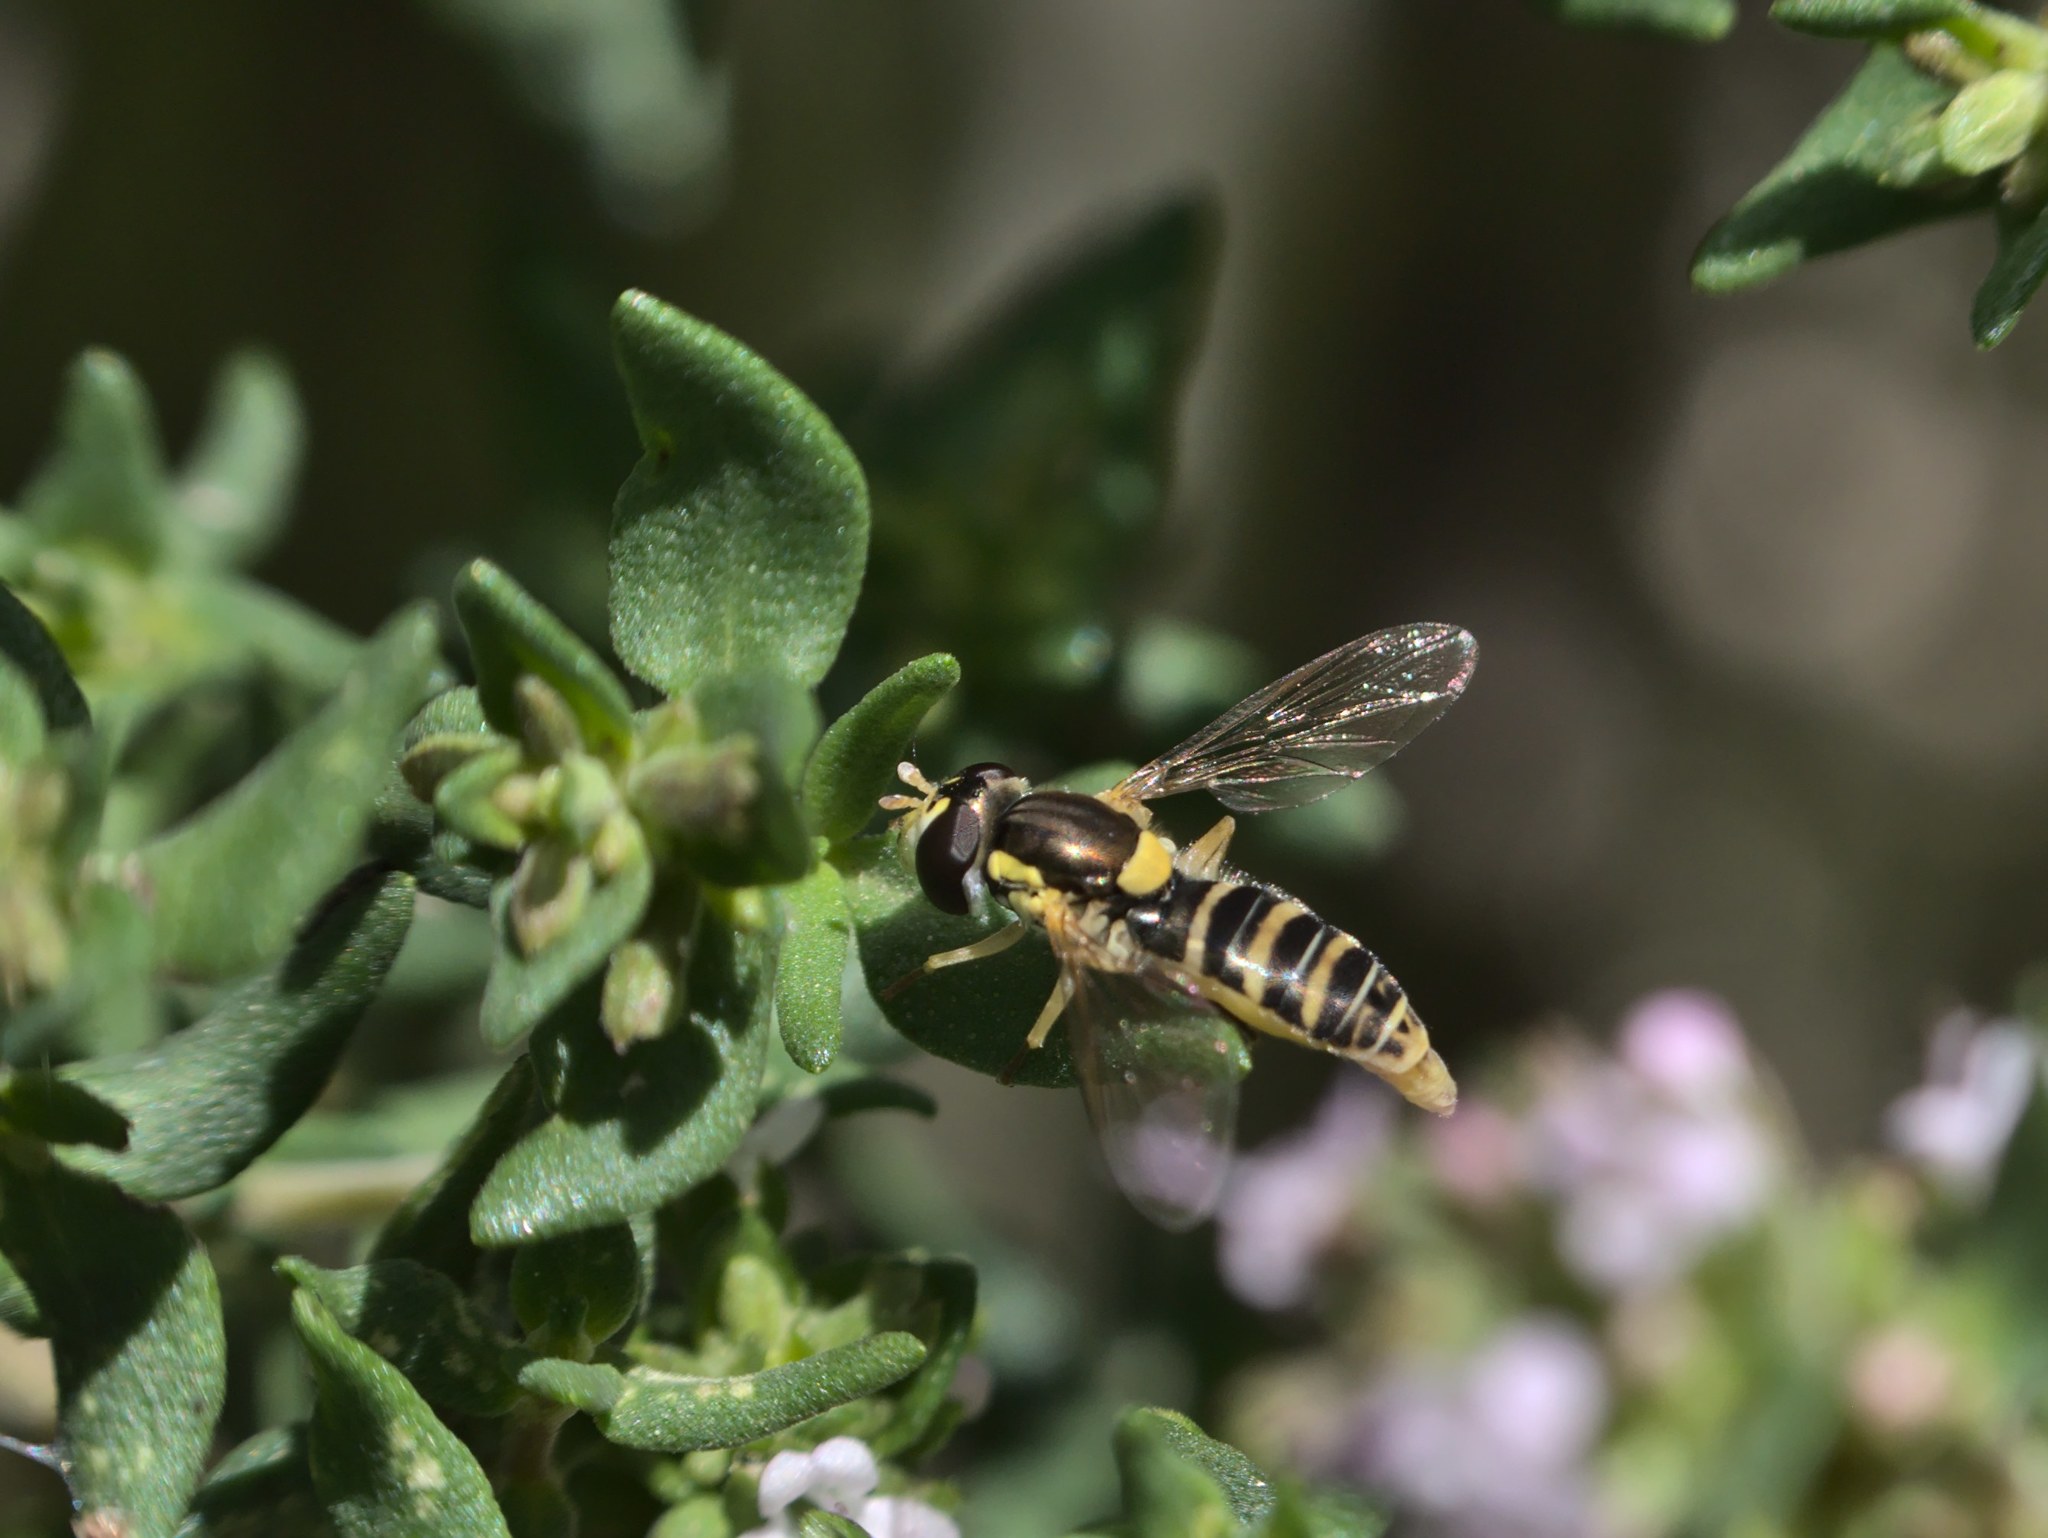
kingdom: Animalia
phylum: Arthropoda
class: Insecta
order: Diptera
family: Syrphidae
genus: Sphaerophoria
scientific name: Sphaerophoria sulphuripes
